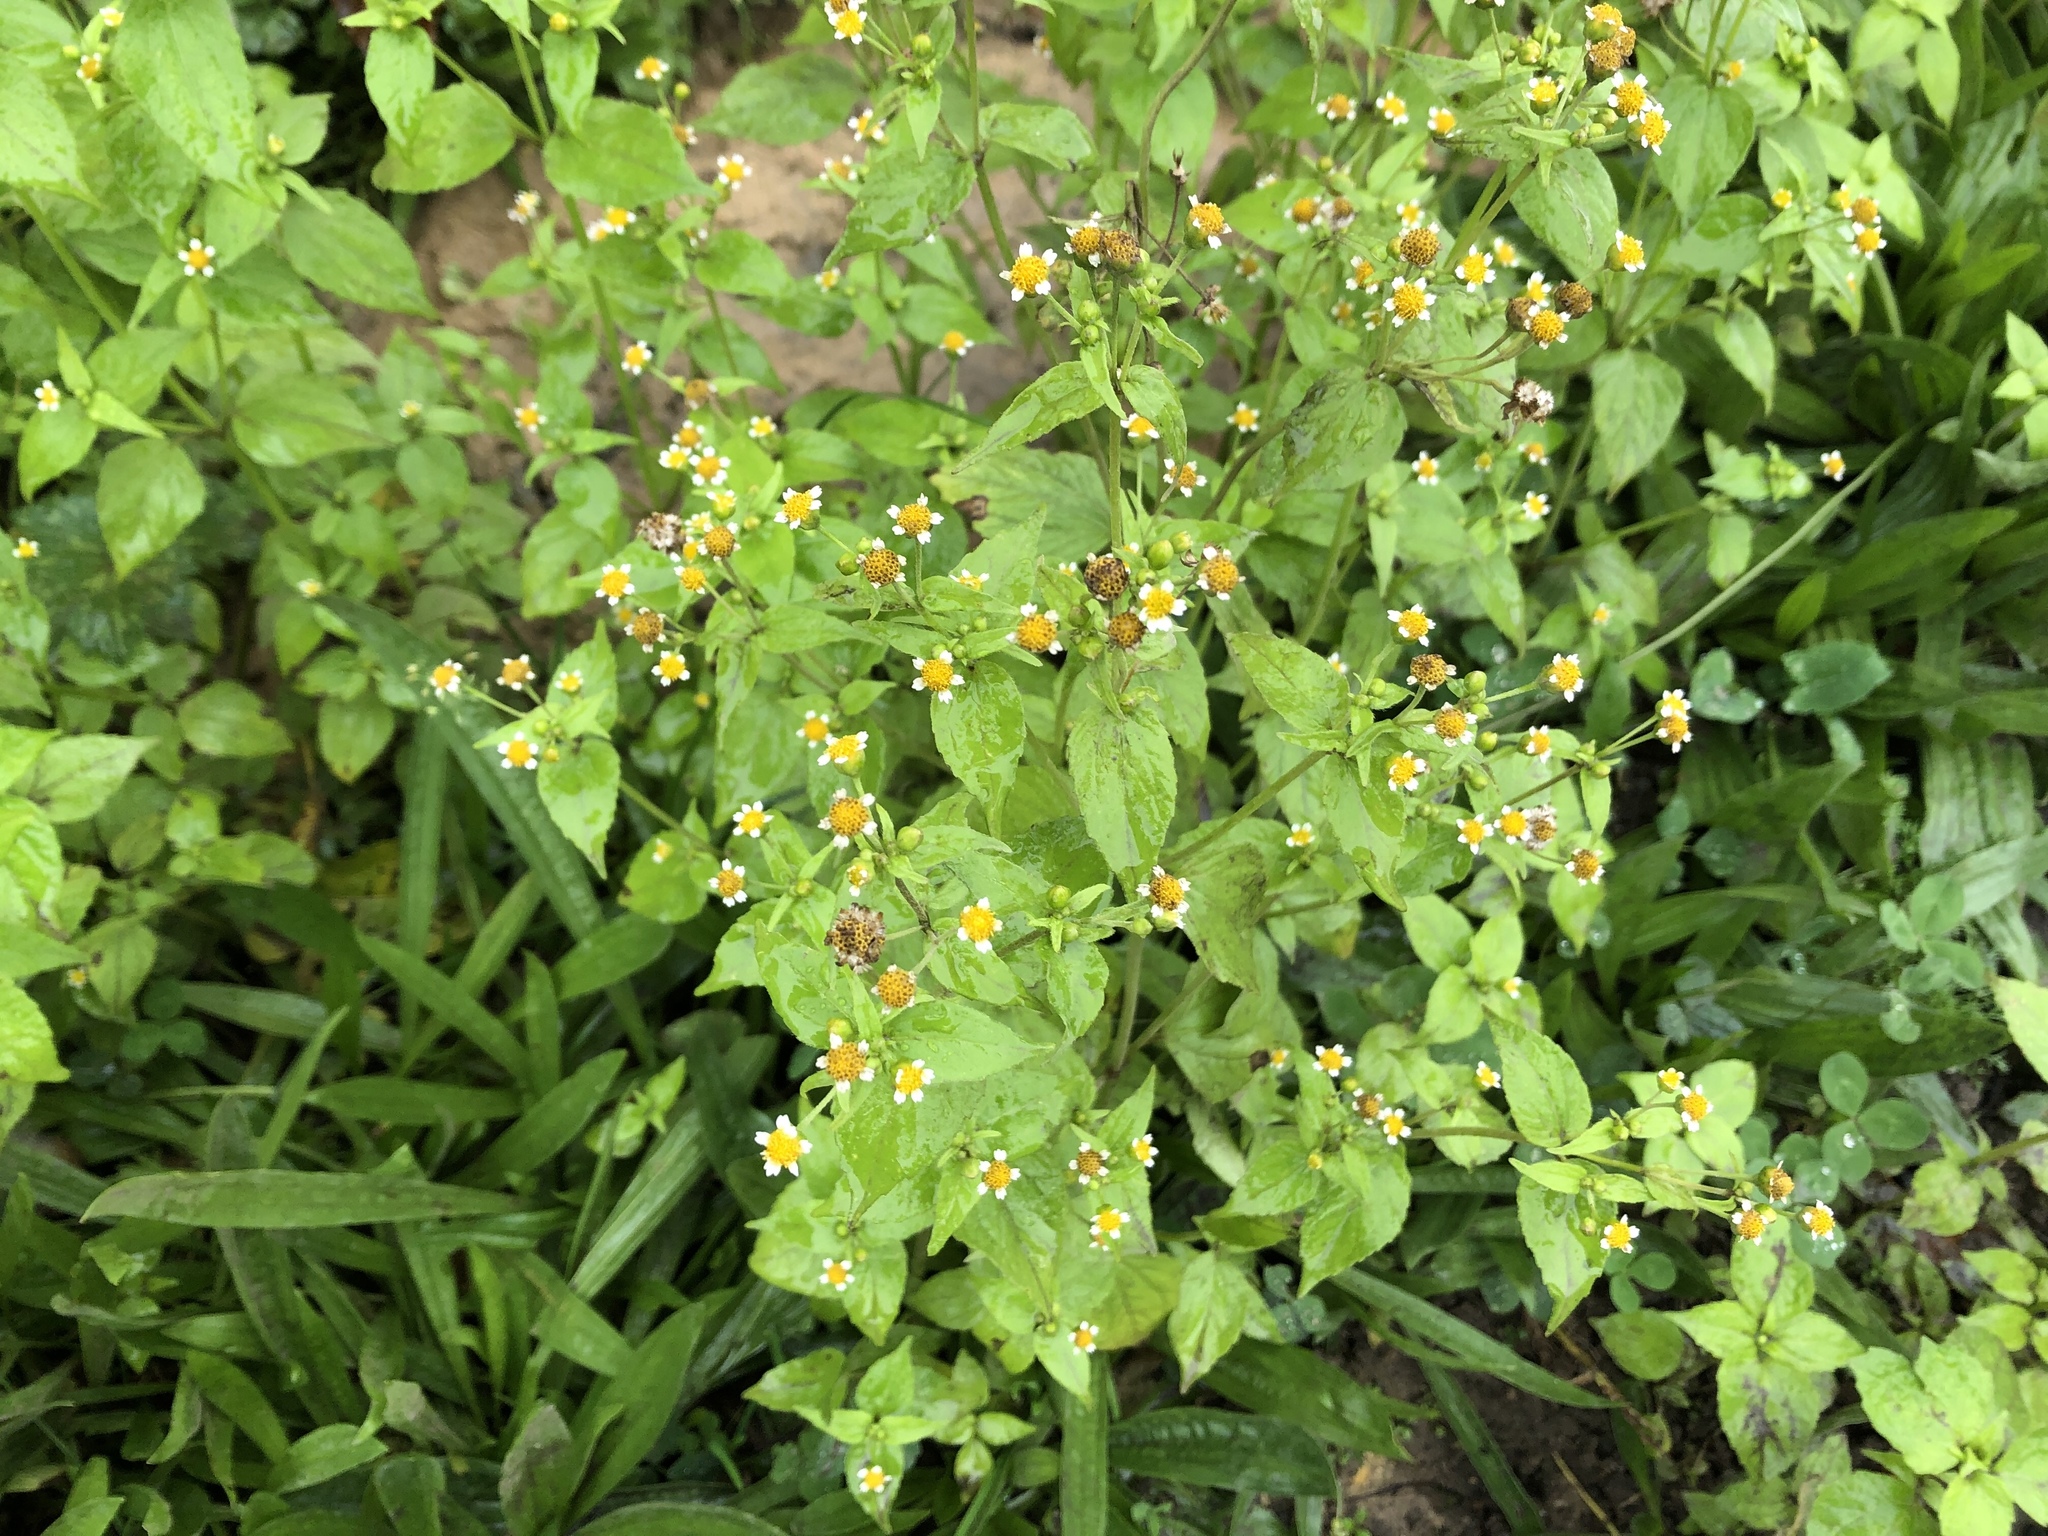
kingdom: Plantae
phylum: Tracheophyta
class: Magnoliopsida
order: Asterales
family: Asteraceae
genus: Galinsoga
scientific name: Galinsoga parviflora
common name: Gallant soldier
